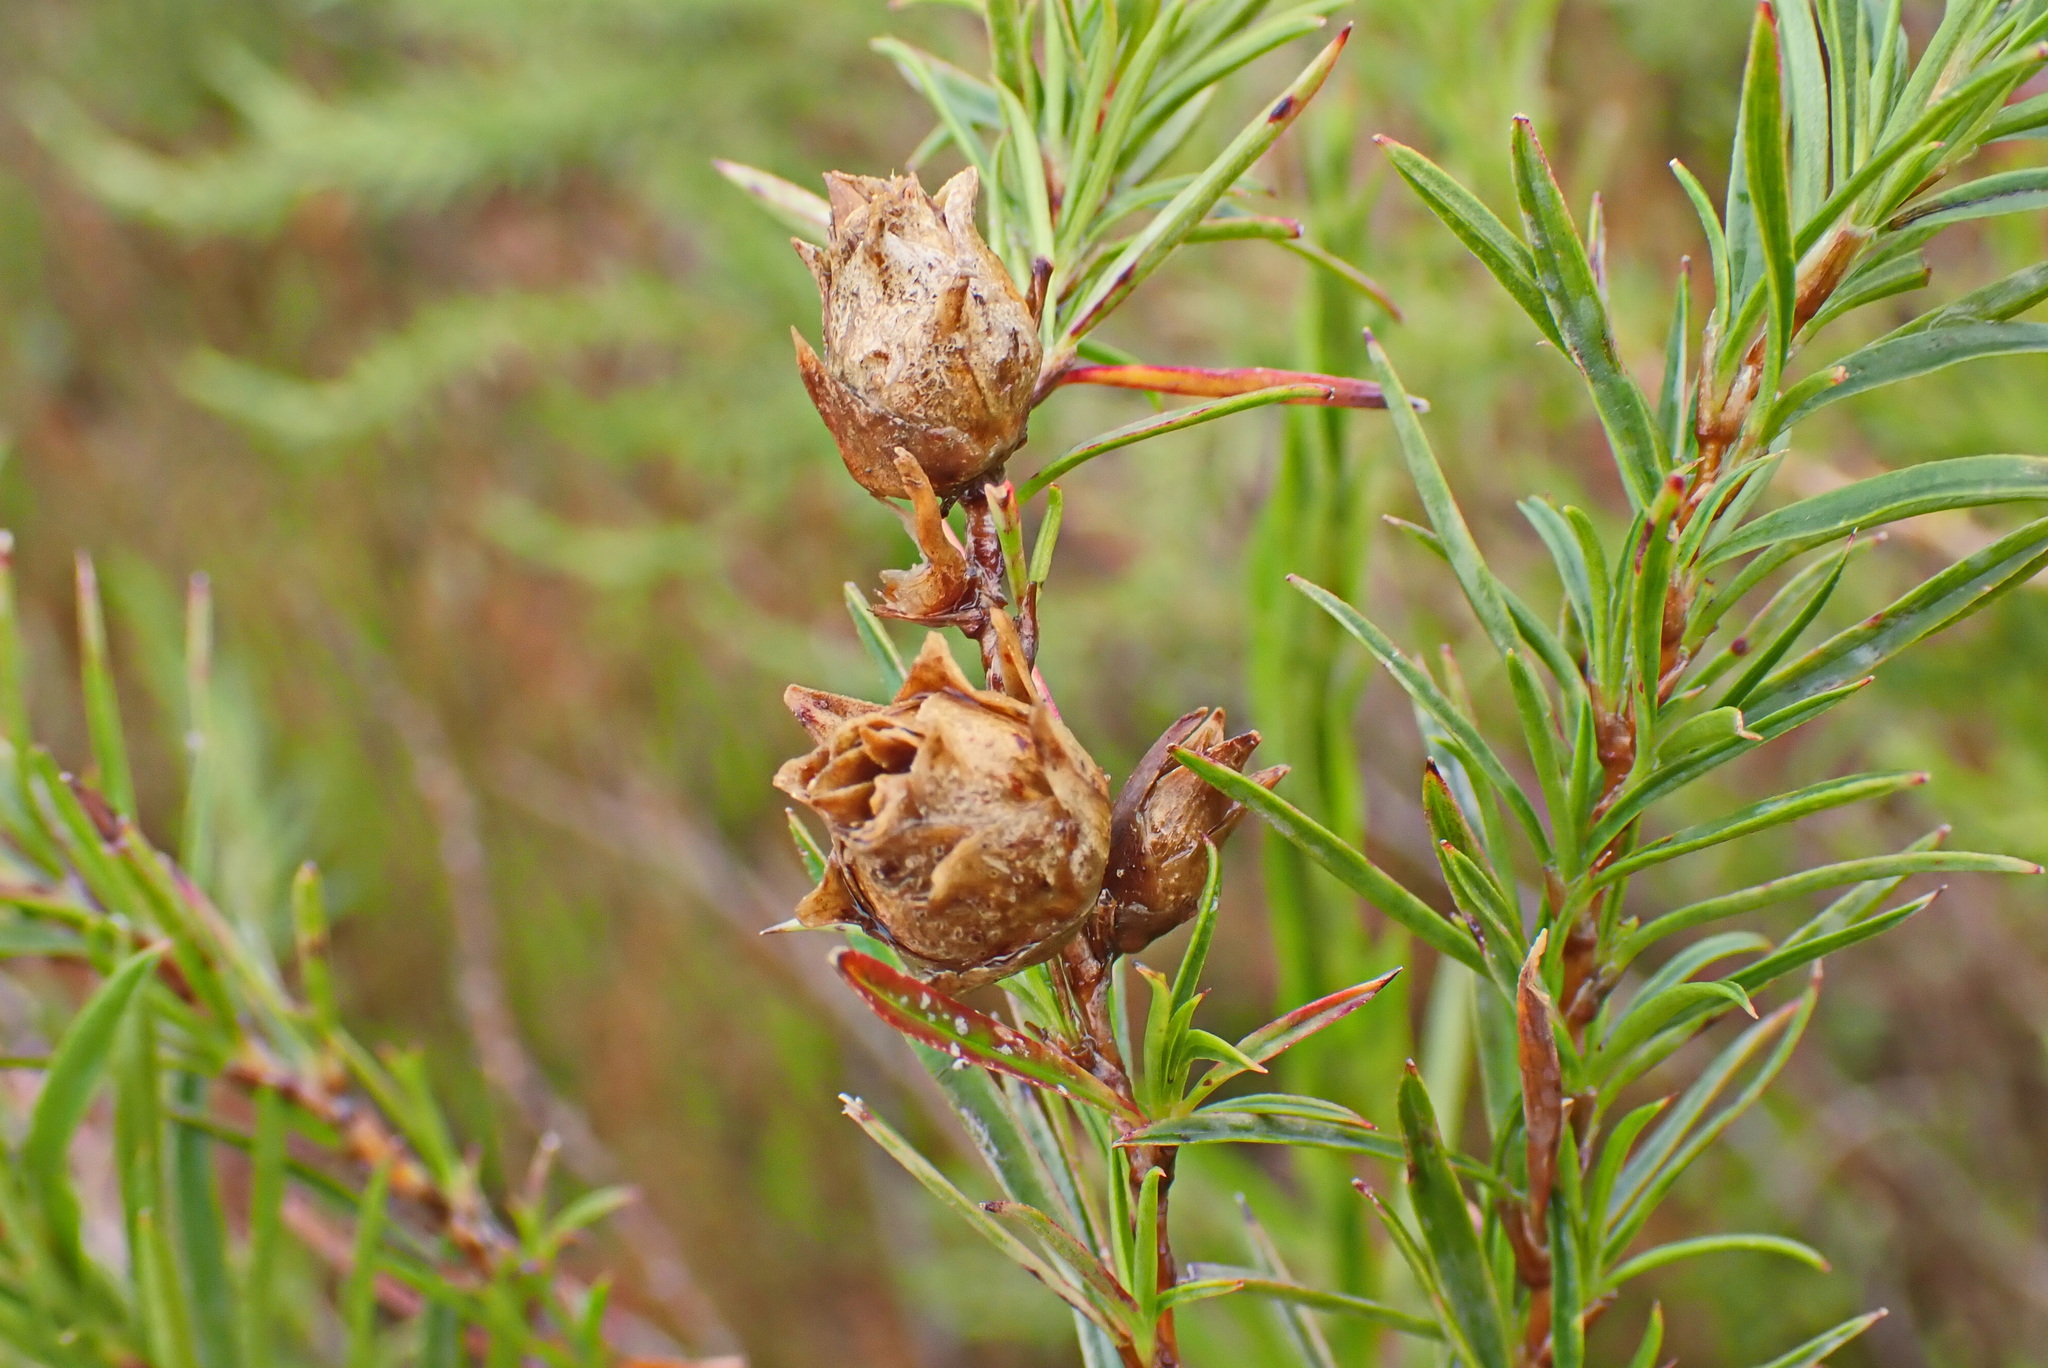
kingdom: Plantae
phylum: Tracheophyta
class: Magnoliopsida
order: Rosales
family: Rosaceae
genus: Cliffortia
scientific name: Cliffortia strobilifera
